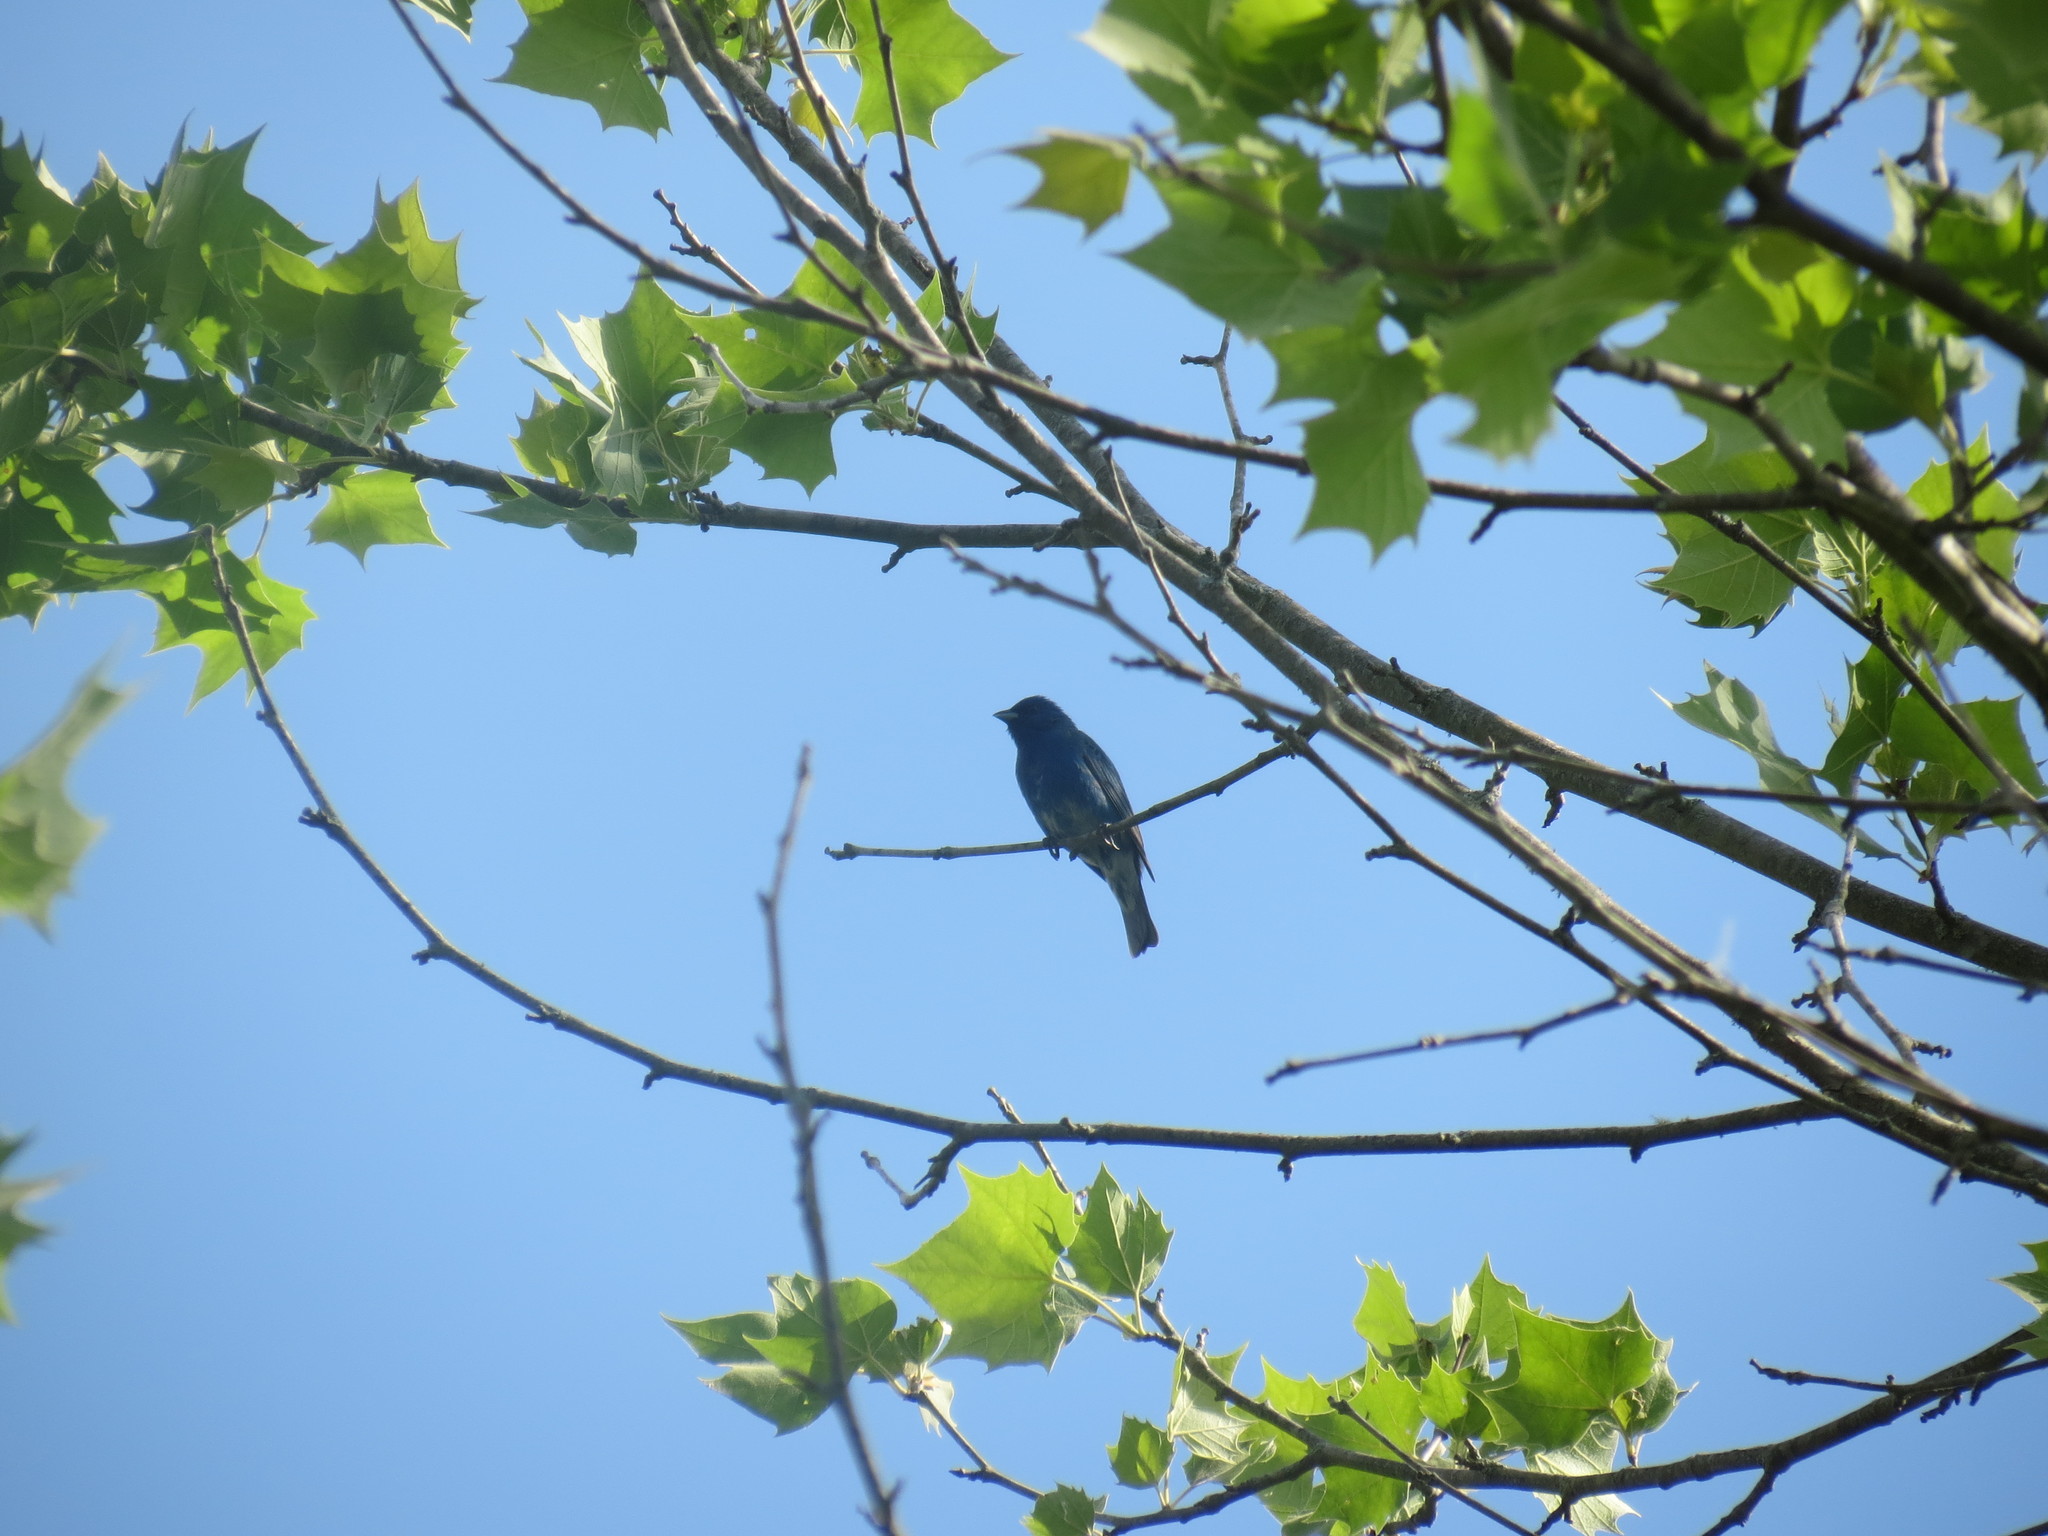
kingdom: Animalia
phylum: Chordata
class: Aves
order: Passeriformes
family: Cardinalidae
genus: Passerina
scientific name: Passerina cyanea
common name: Indigo bunting
